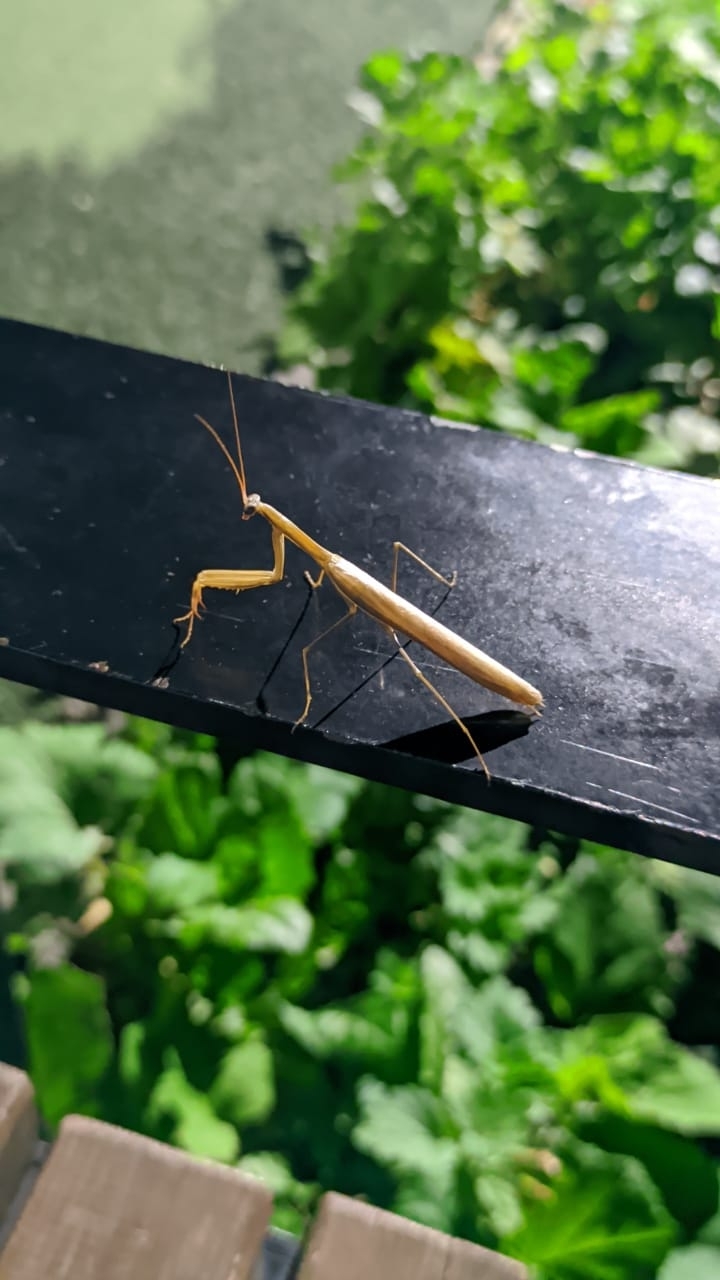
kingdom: Animalia
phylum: Arthropoda
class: Insecta
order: Mantodea
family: Mantidae
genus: Mantis
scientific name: Mantis religiosa
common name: Praying mantis
